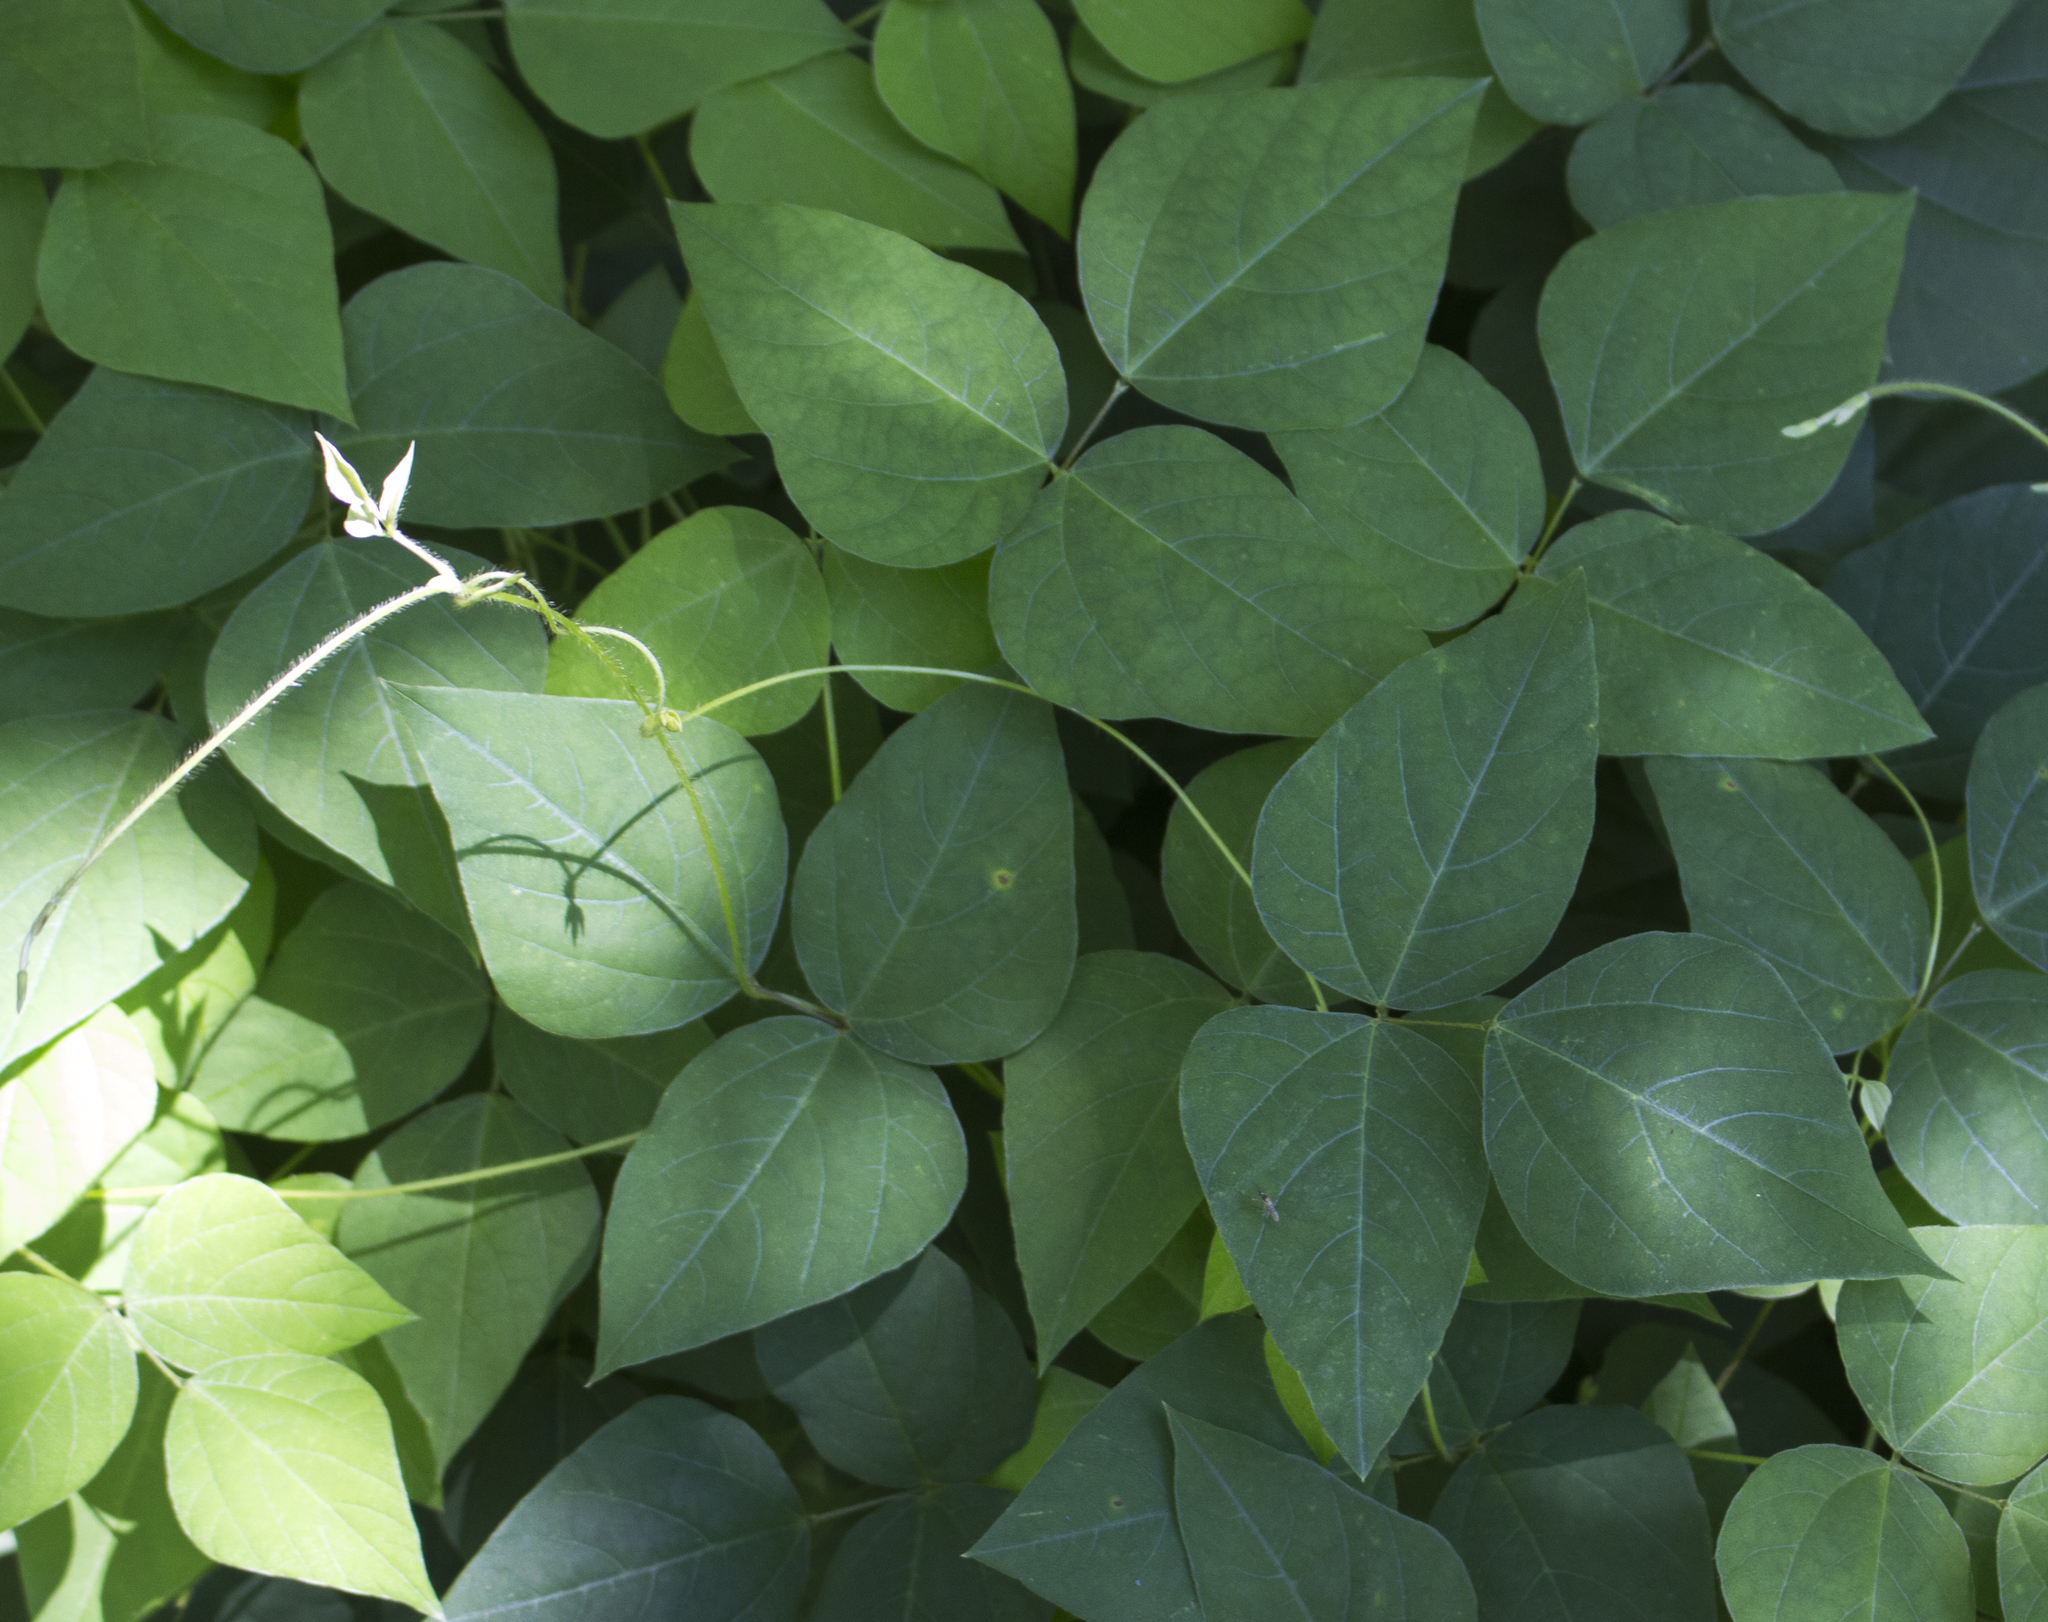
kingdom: Plantae
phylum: Tracheophyta
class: Magnoliopsida
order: Fabales
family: Fabaceae
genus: Amphicarpaea
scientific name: Amphicarpaea bracteata
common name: American hog peanut
